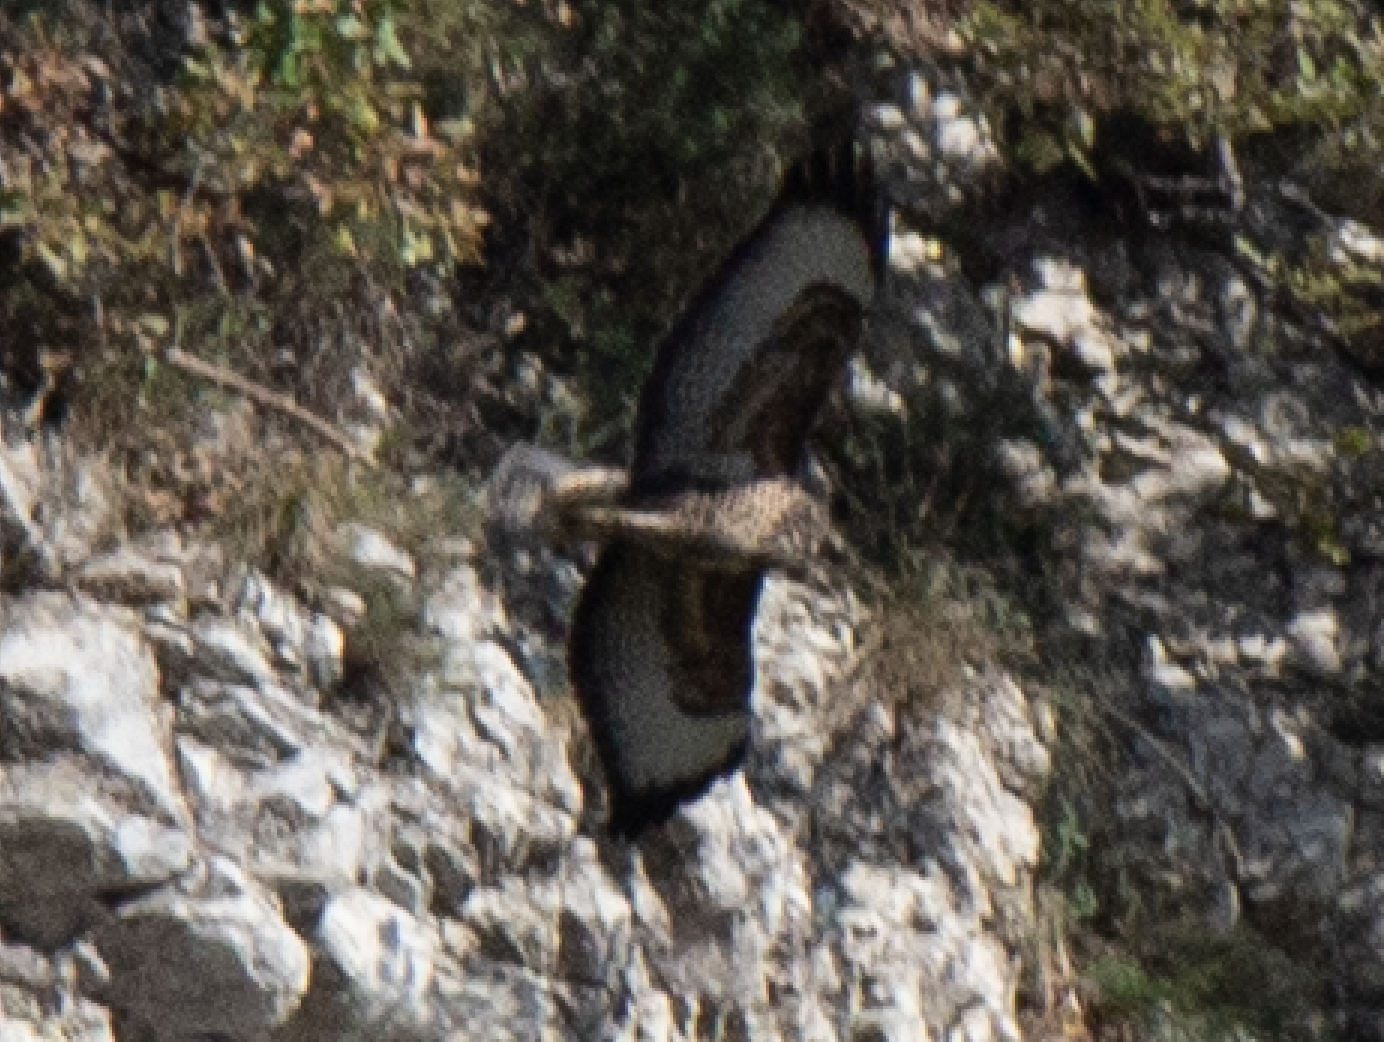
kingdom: Animalia
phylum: Chordata
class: Aves
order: Accipitriformes
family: Accipitridae
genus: Buteo
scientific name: Buteo buteo
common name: Common buzzard
